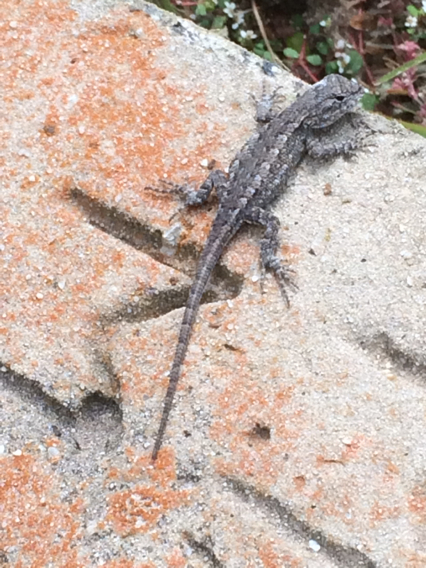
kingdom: Animalia
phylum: Chordata
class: Squamata
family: Phrynosomatidae
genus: Sceloporus
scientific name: Sceloporus consobrinus
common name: Southern prairie lizard
